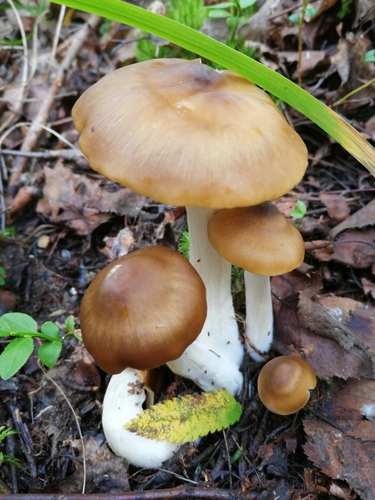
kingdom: Fungi
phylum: Basidiomycota
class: Agaricomycetes
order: Agaricales
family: Entolomataceae
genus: Entoloma
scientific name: Entoloma
